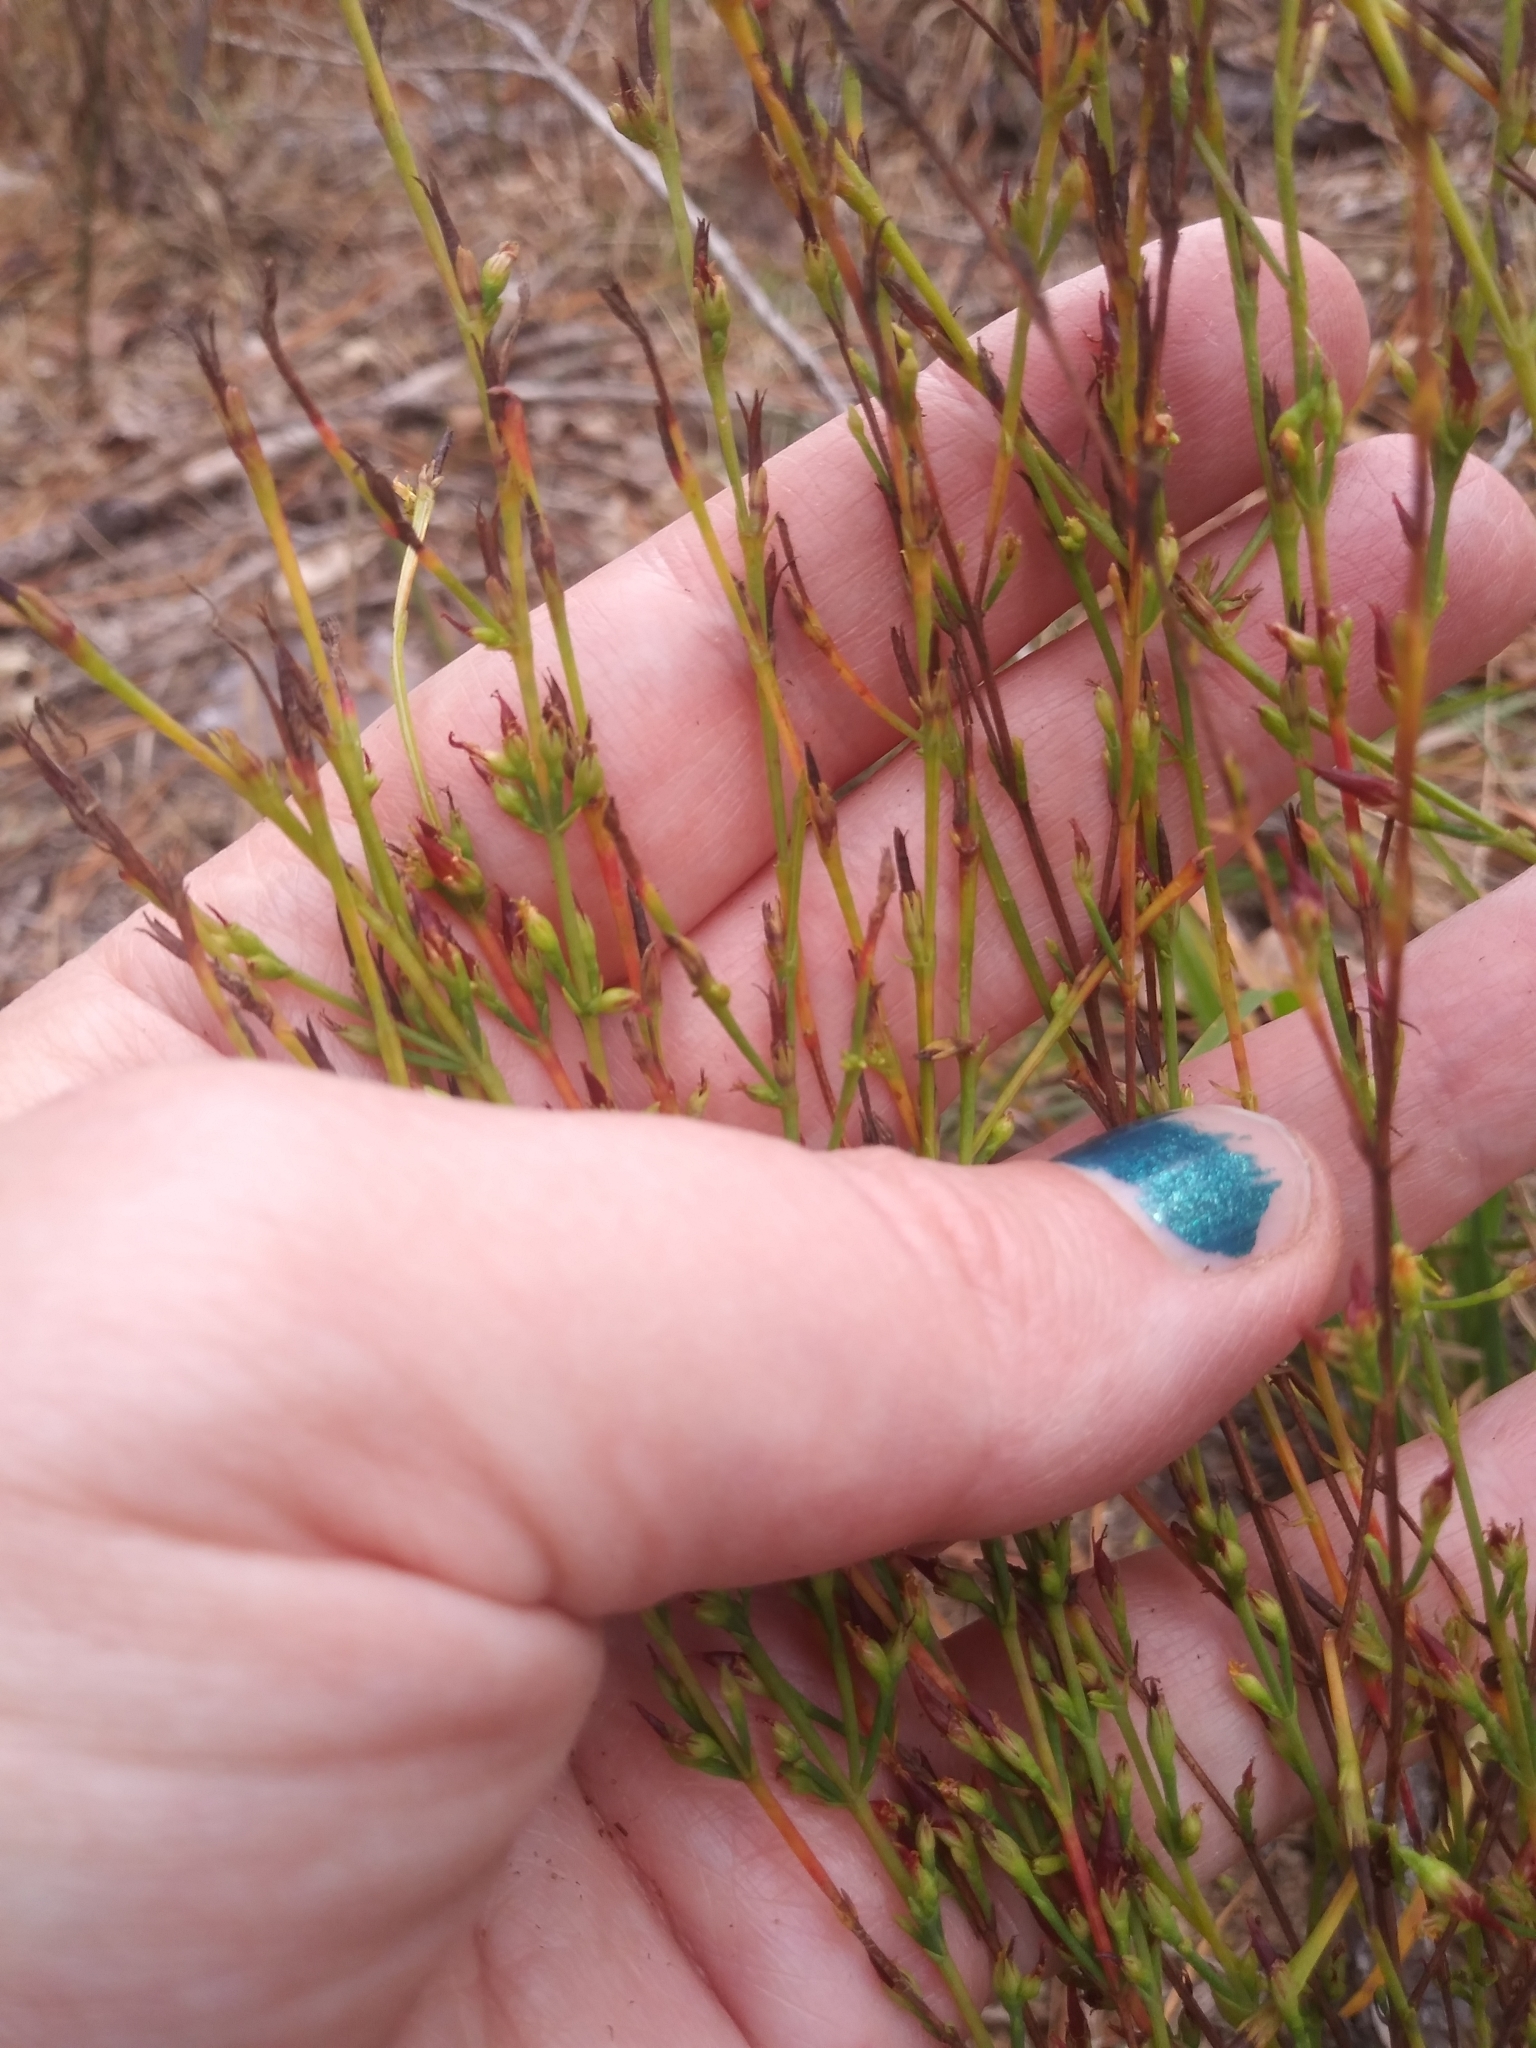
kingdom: Plantae
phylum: Tracheophyta
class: Magnoliopsida
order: Malpighiales
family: Hypericaceae
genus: Hypericum
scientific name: Hypericum gentianoides
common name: Gentian-leaved st. john's-wort
